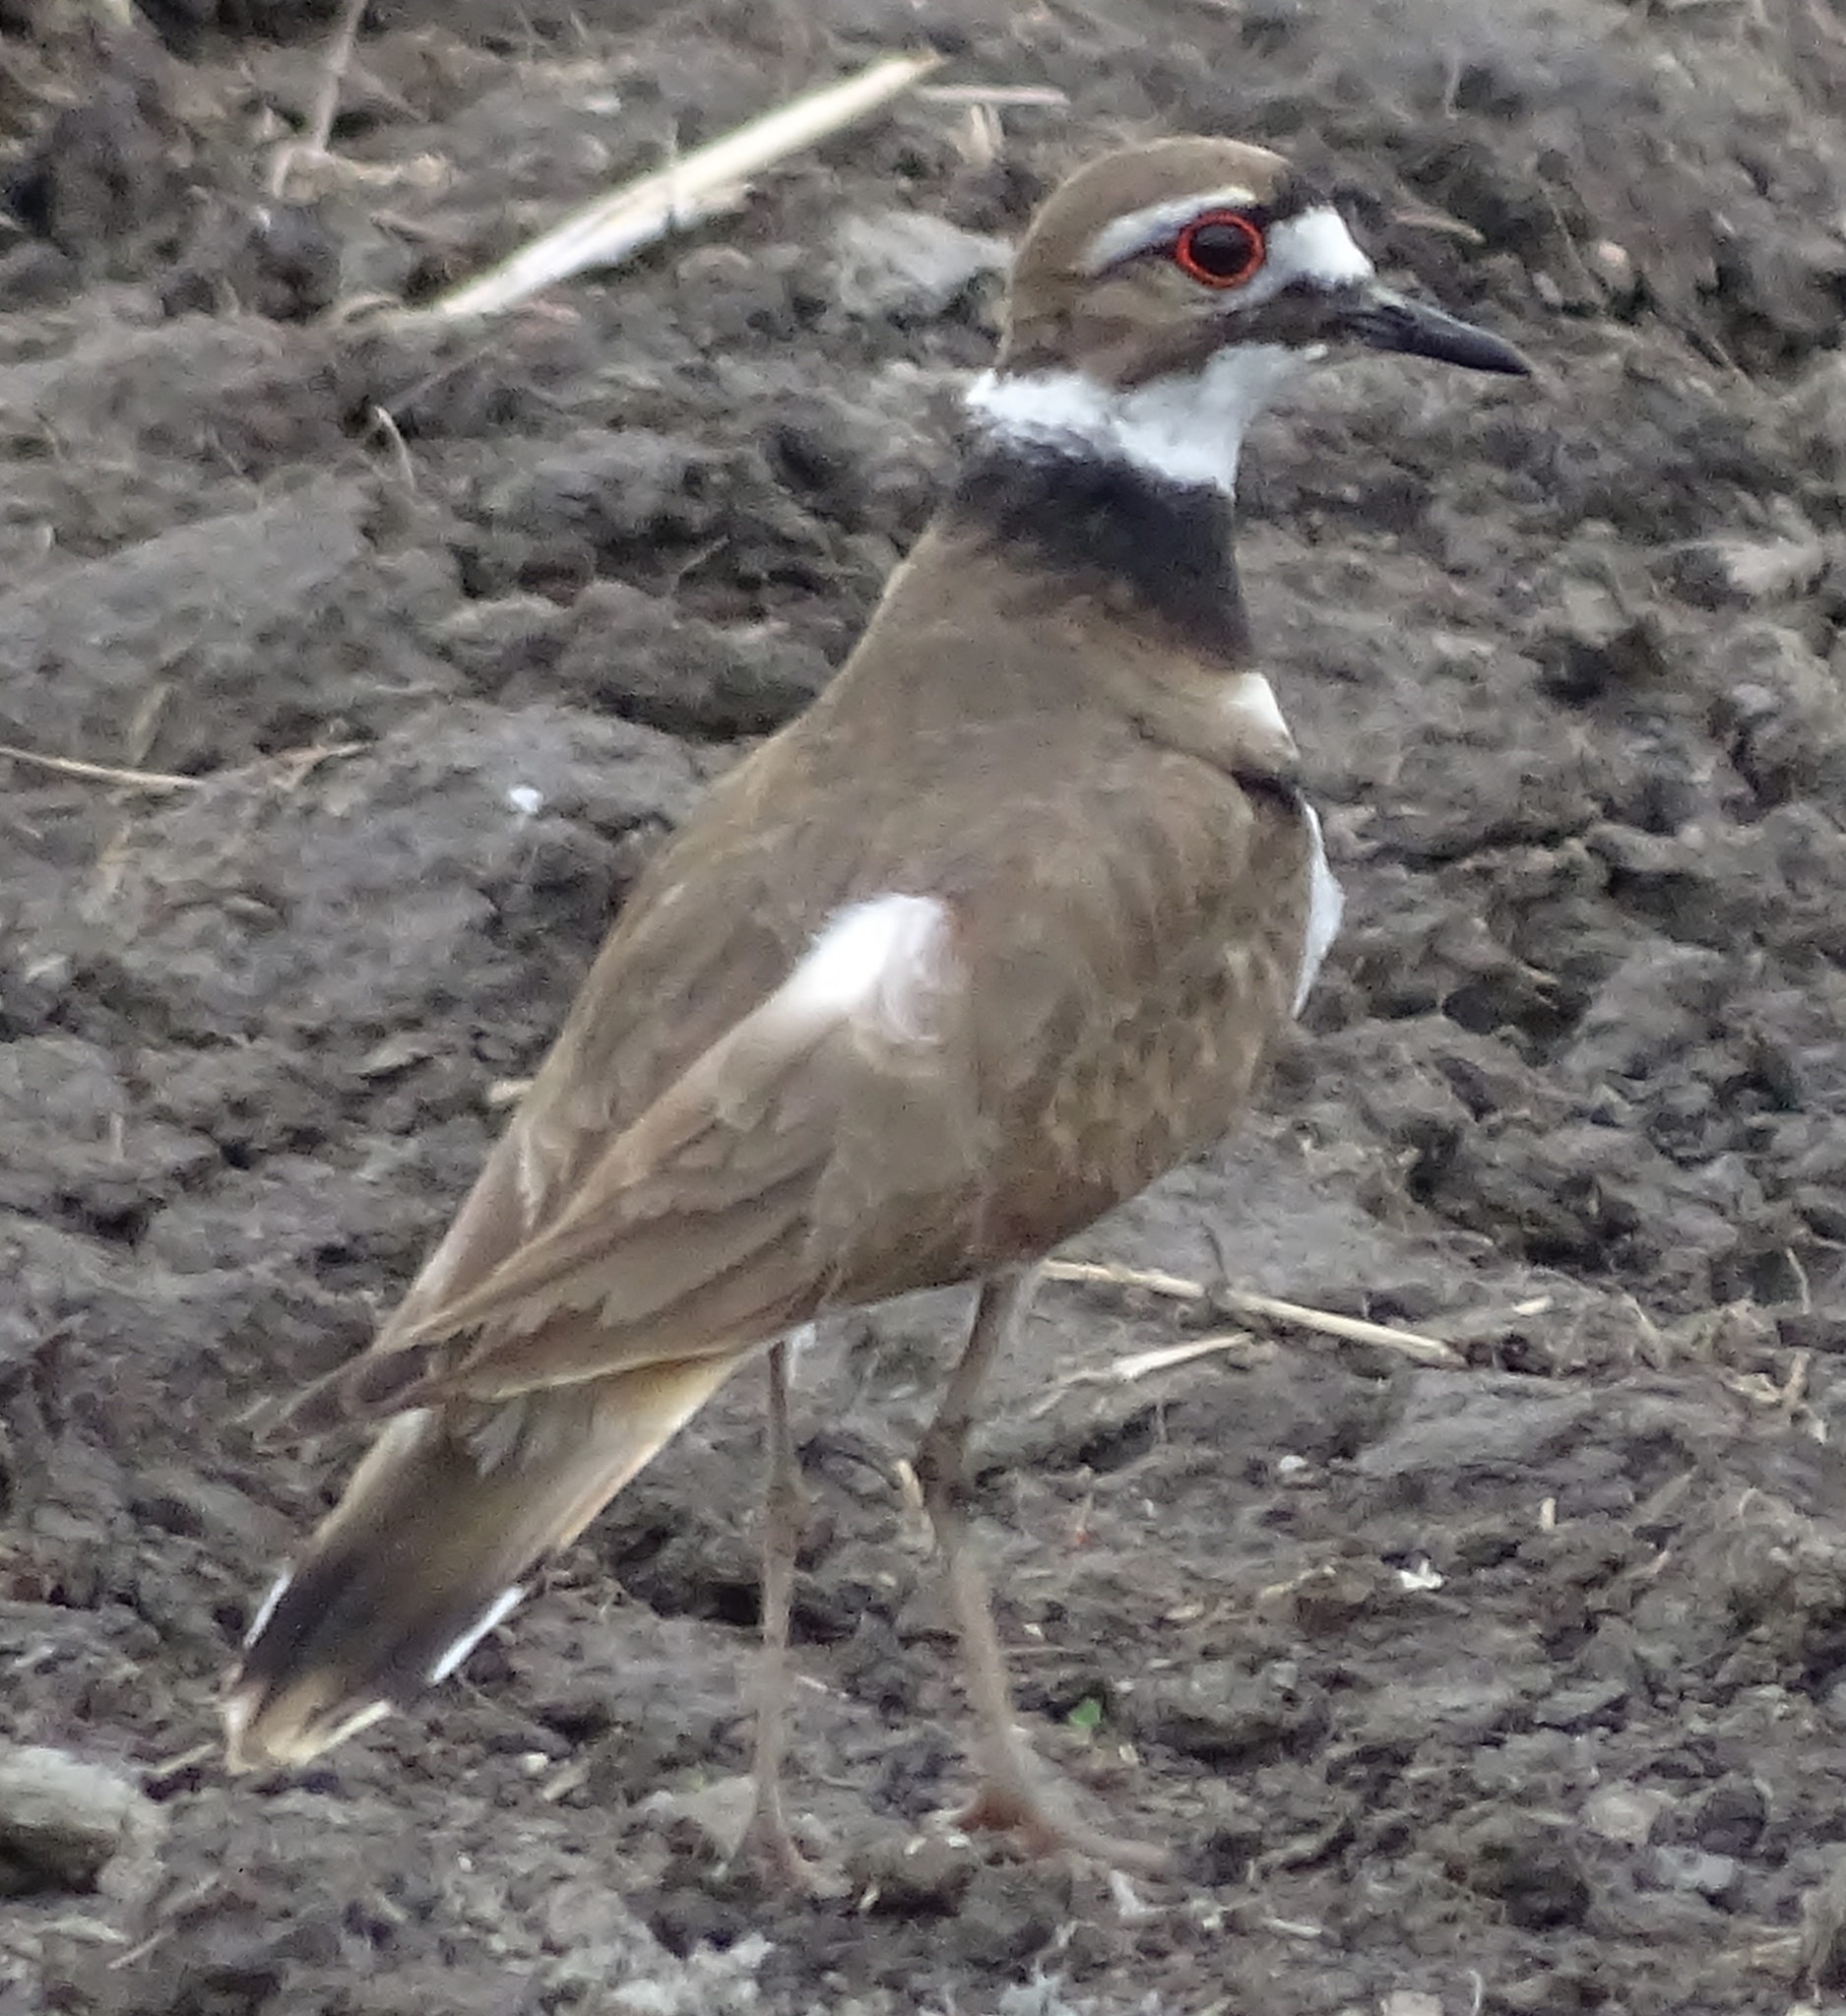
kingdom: Animalia
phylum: Chordata
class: Aves
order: Charadriiformes
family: Charadriidae
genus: Charadrius
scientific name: Charadrius vociferus
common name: Killdeer
